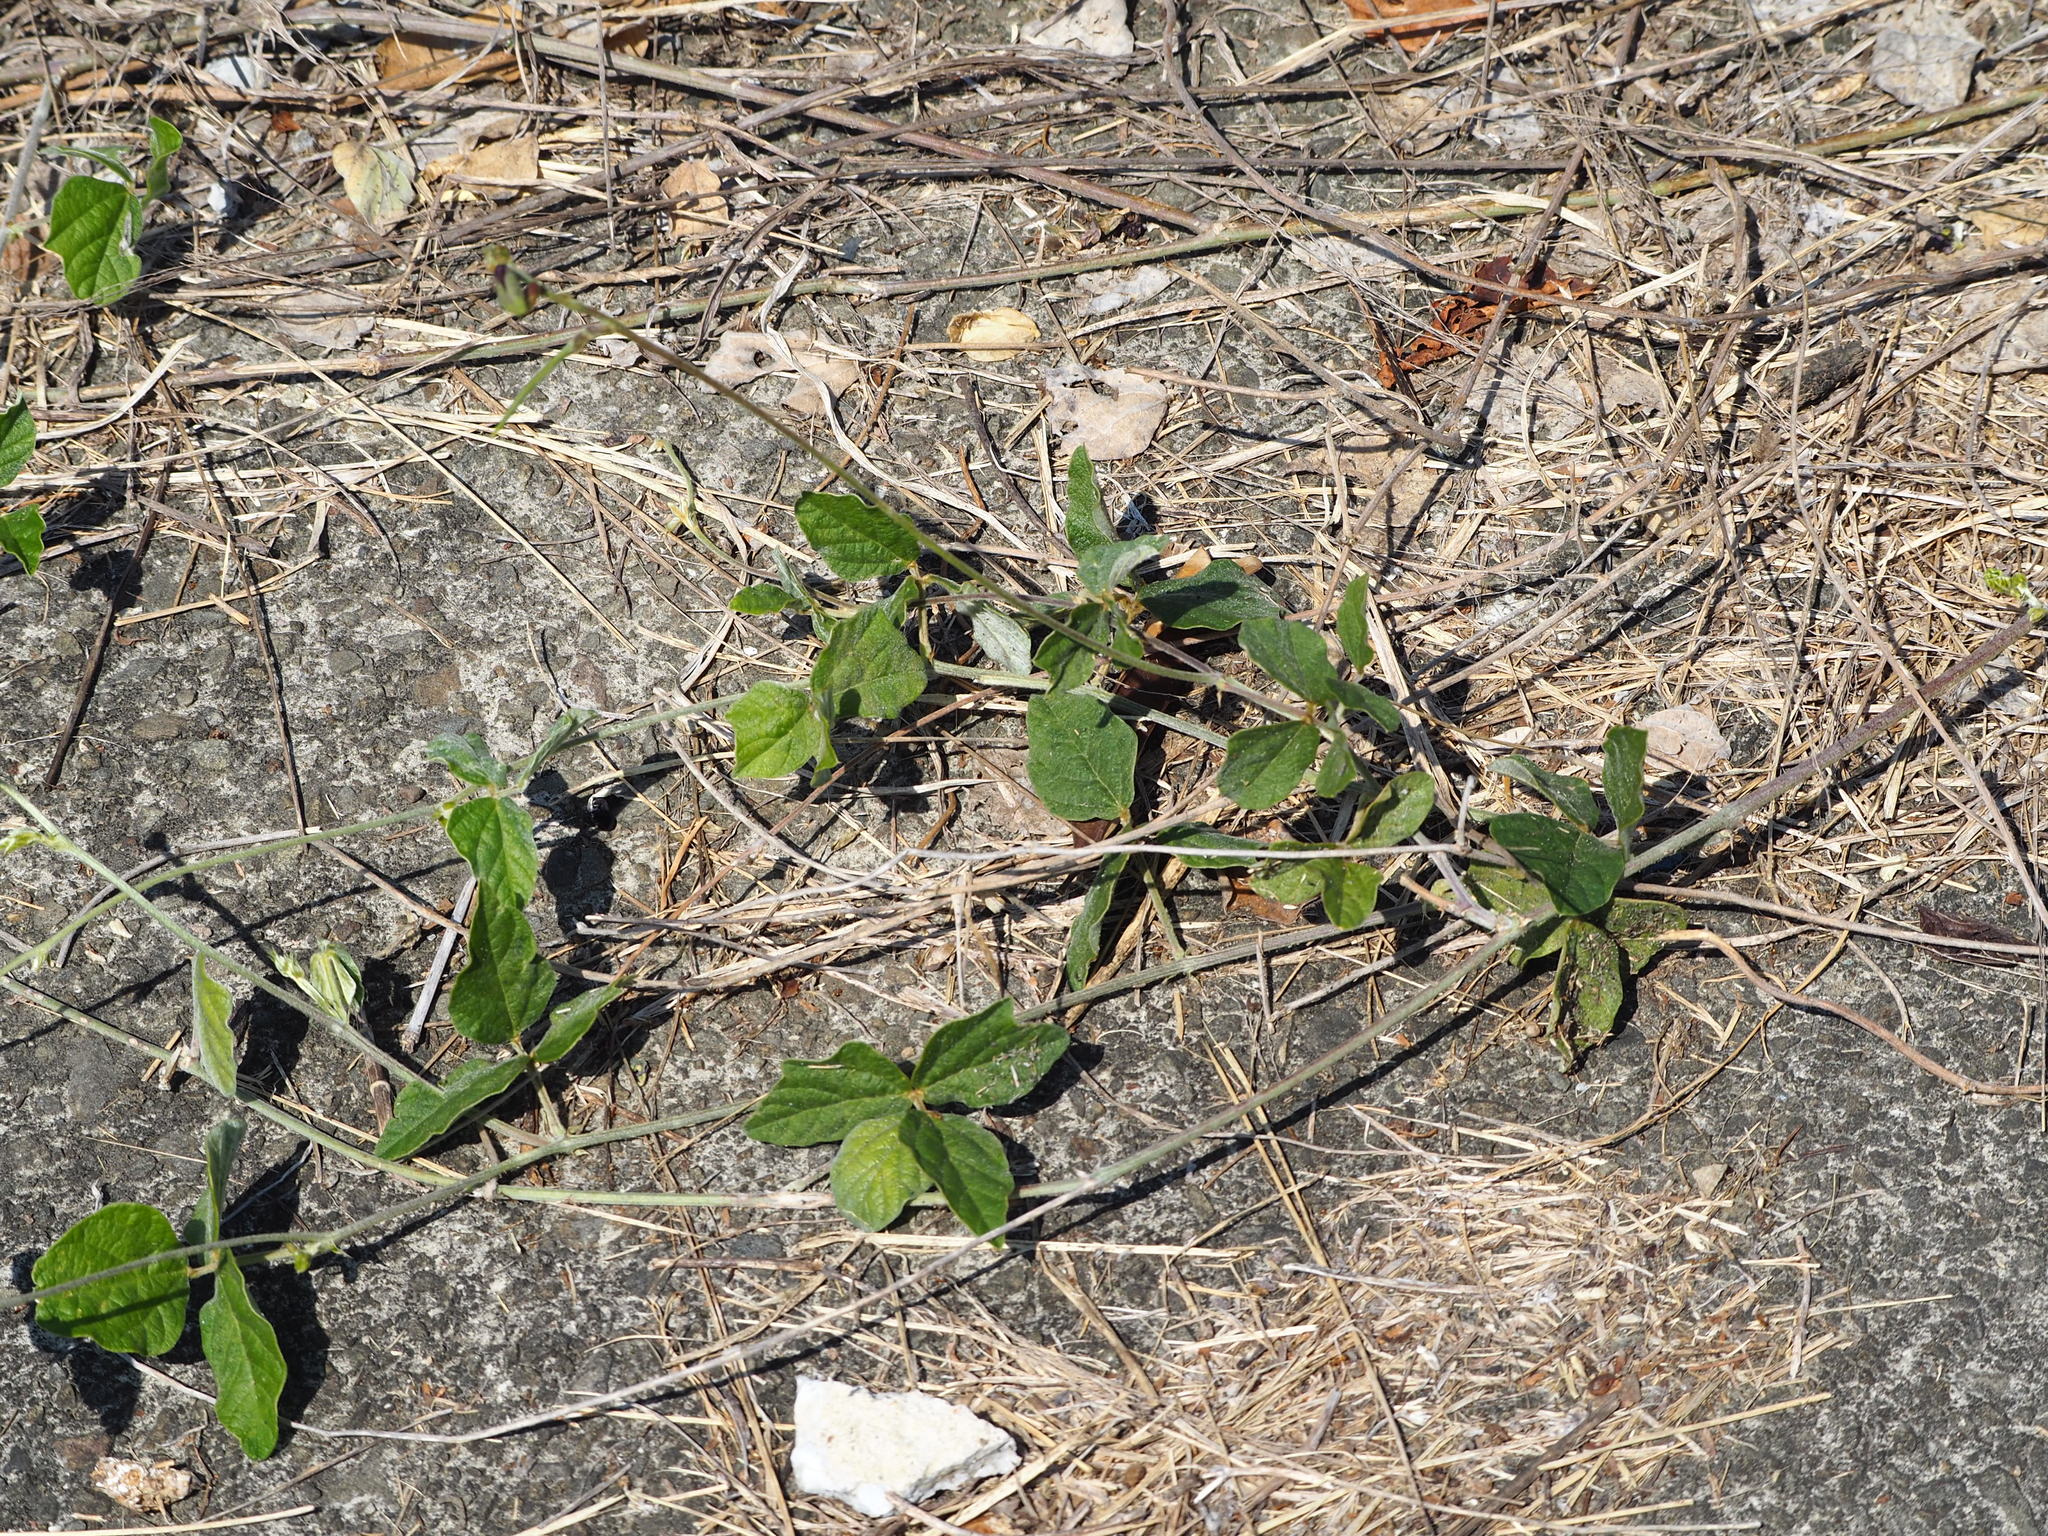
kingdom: Plantae
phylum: Tracheophyta
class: Magnoliopsida
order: Fabales
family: Fabaceae
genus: Macroptilium
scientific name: Macroptilium atropurpureum
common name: Purple bushbean
